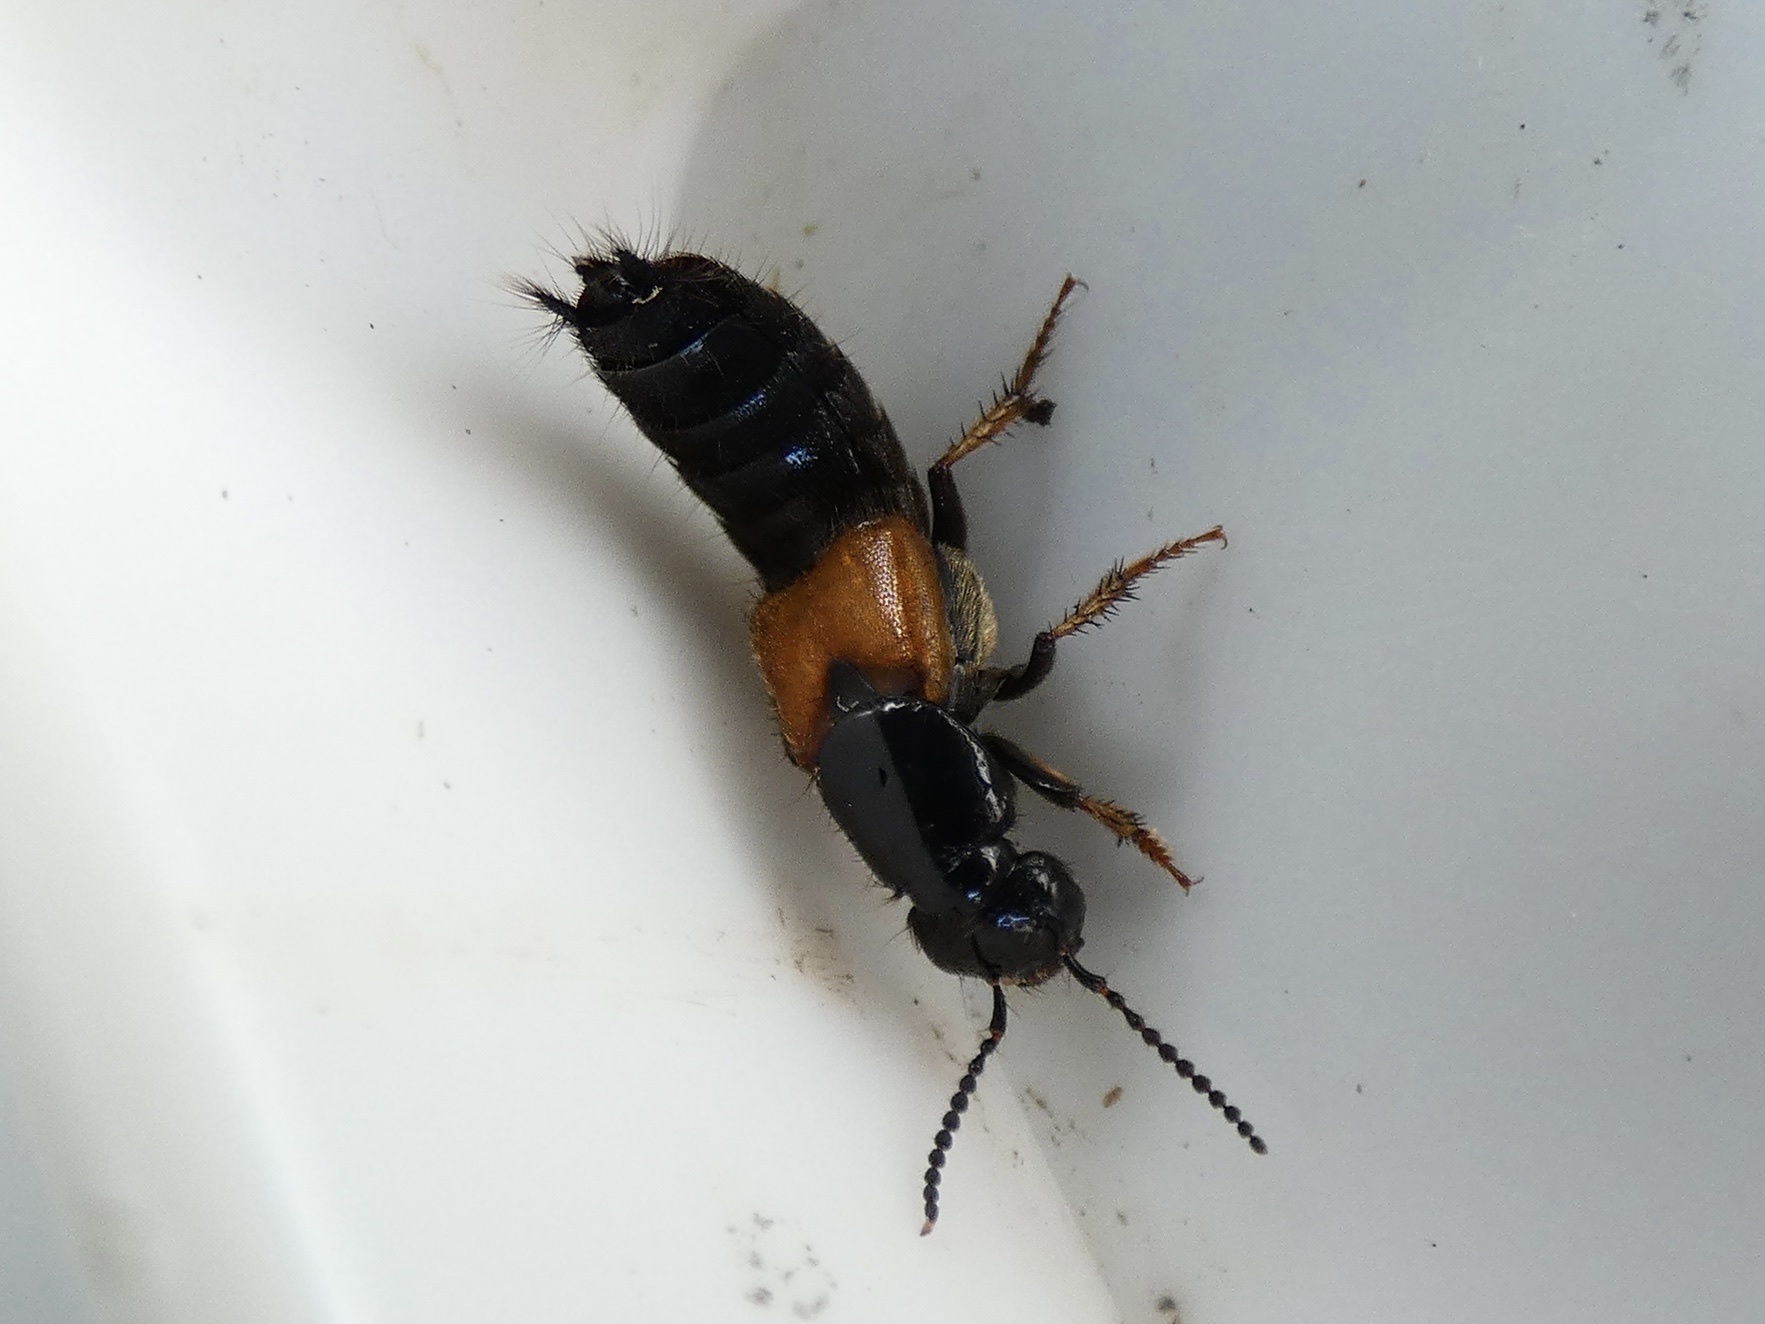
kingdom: Animalia
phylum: Arthropoda
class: Insecta
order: Coleoptera
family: Staphylinidae
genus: Philonthus
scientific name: Philonthus spinipes
